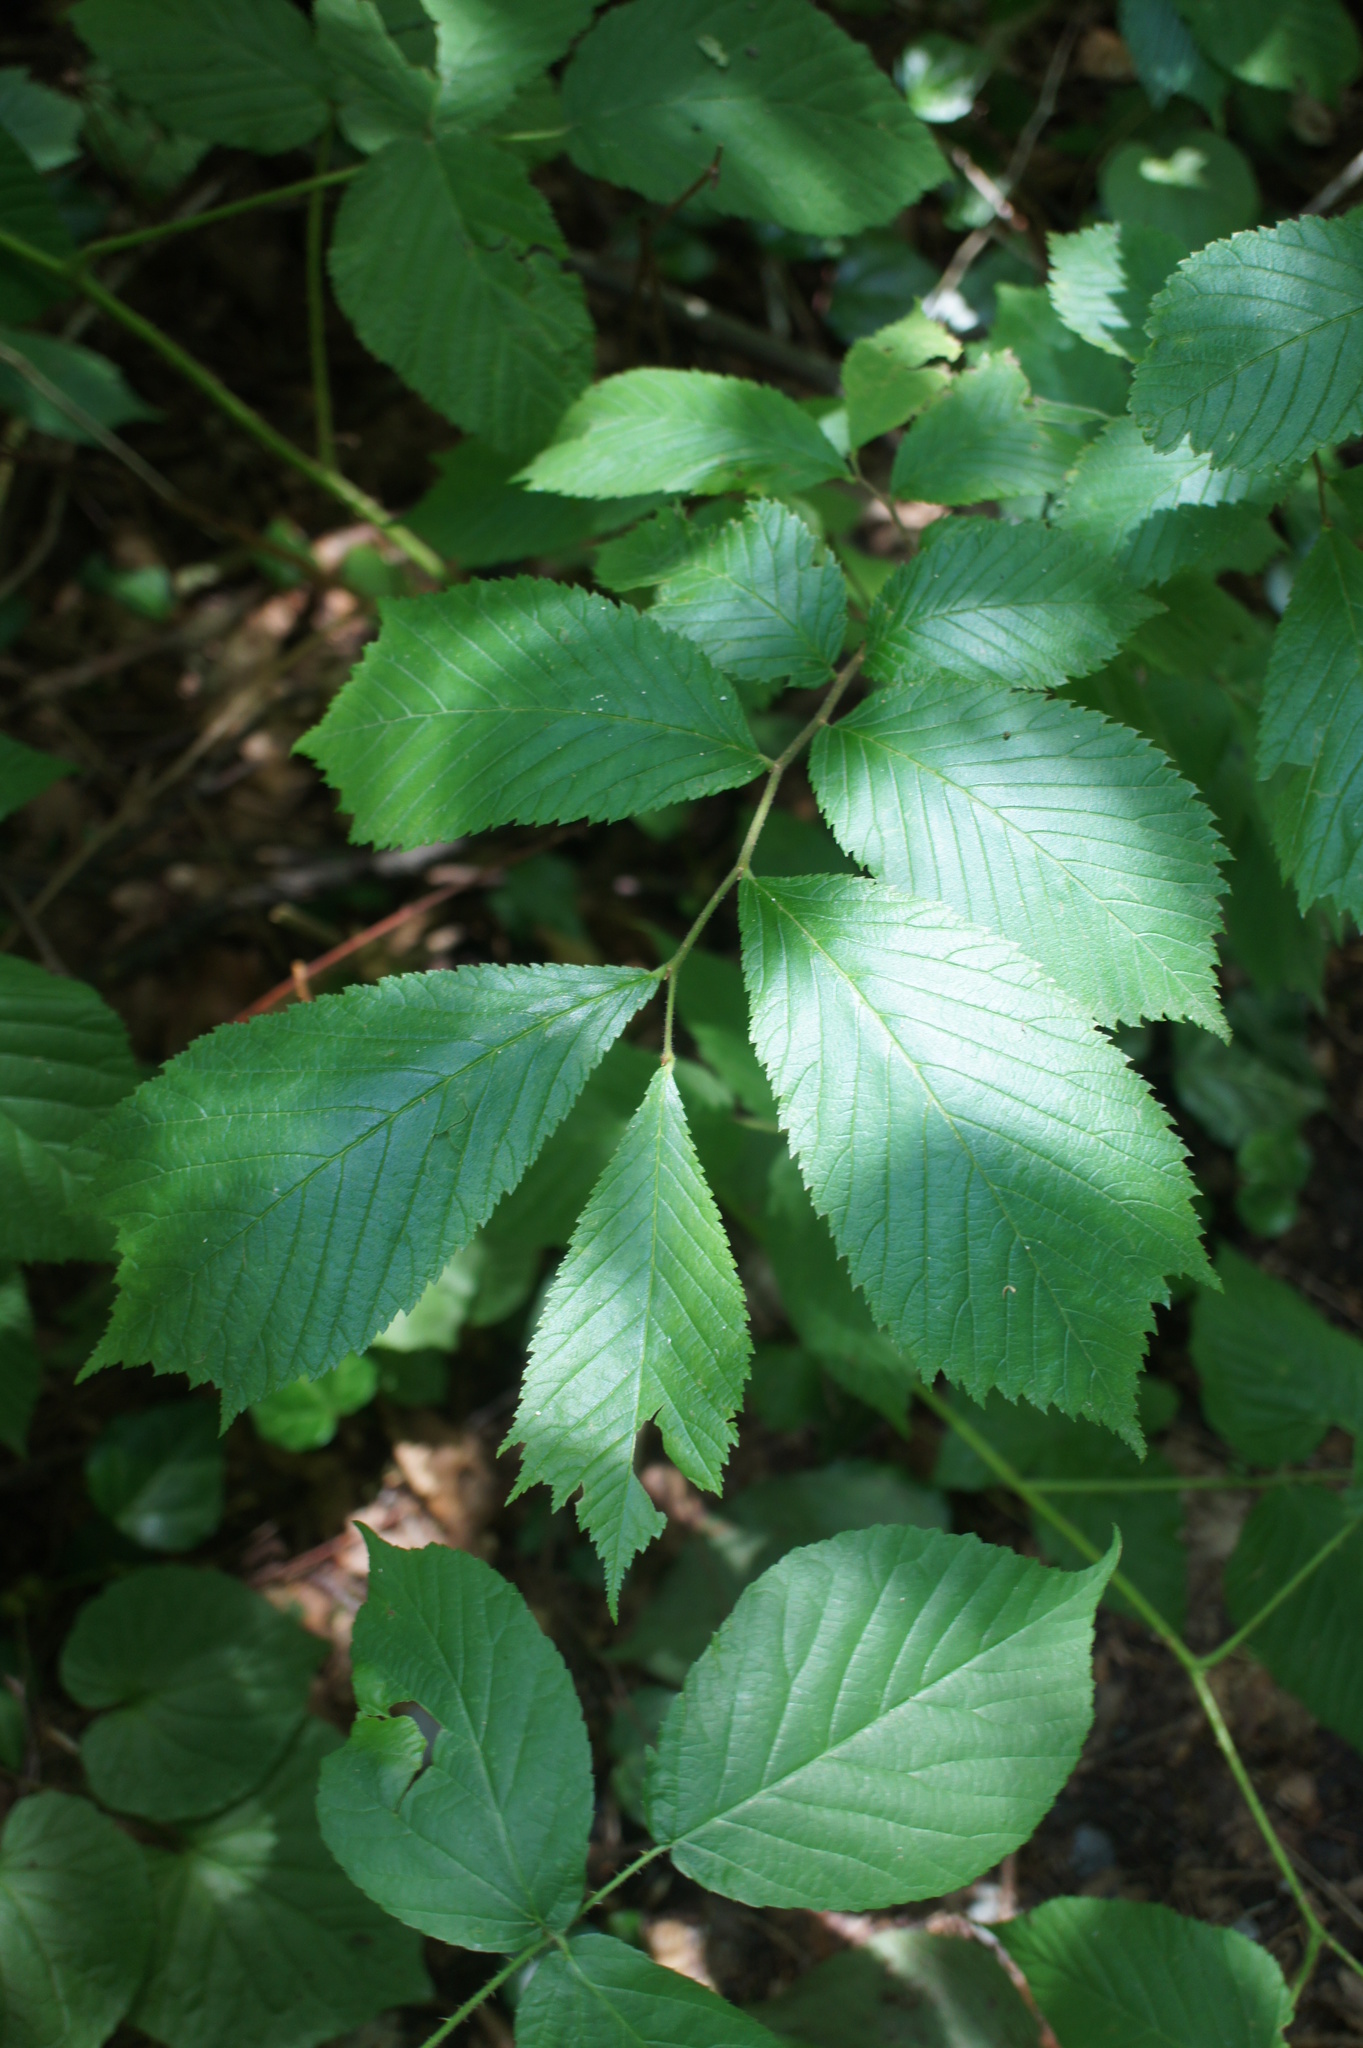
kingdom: Plantae
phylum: Tracheophyta
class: Magnoliopsida
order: Rosales
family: Ulmaceae
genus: Ulmus
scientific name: Ulmus glabra
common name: Wych elm
